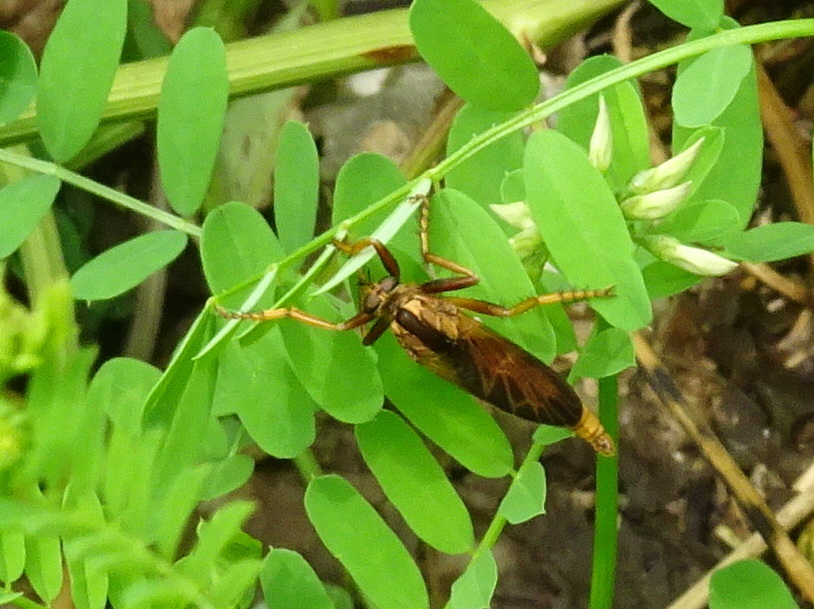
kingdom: Animalia
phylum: Arthropoda
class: Insecta
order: Diptera
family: Asilidae
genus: Asilus
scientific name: Asilus sericeus
